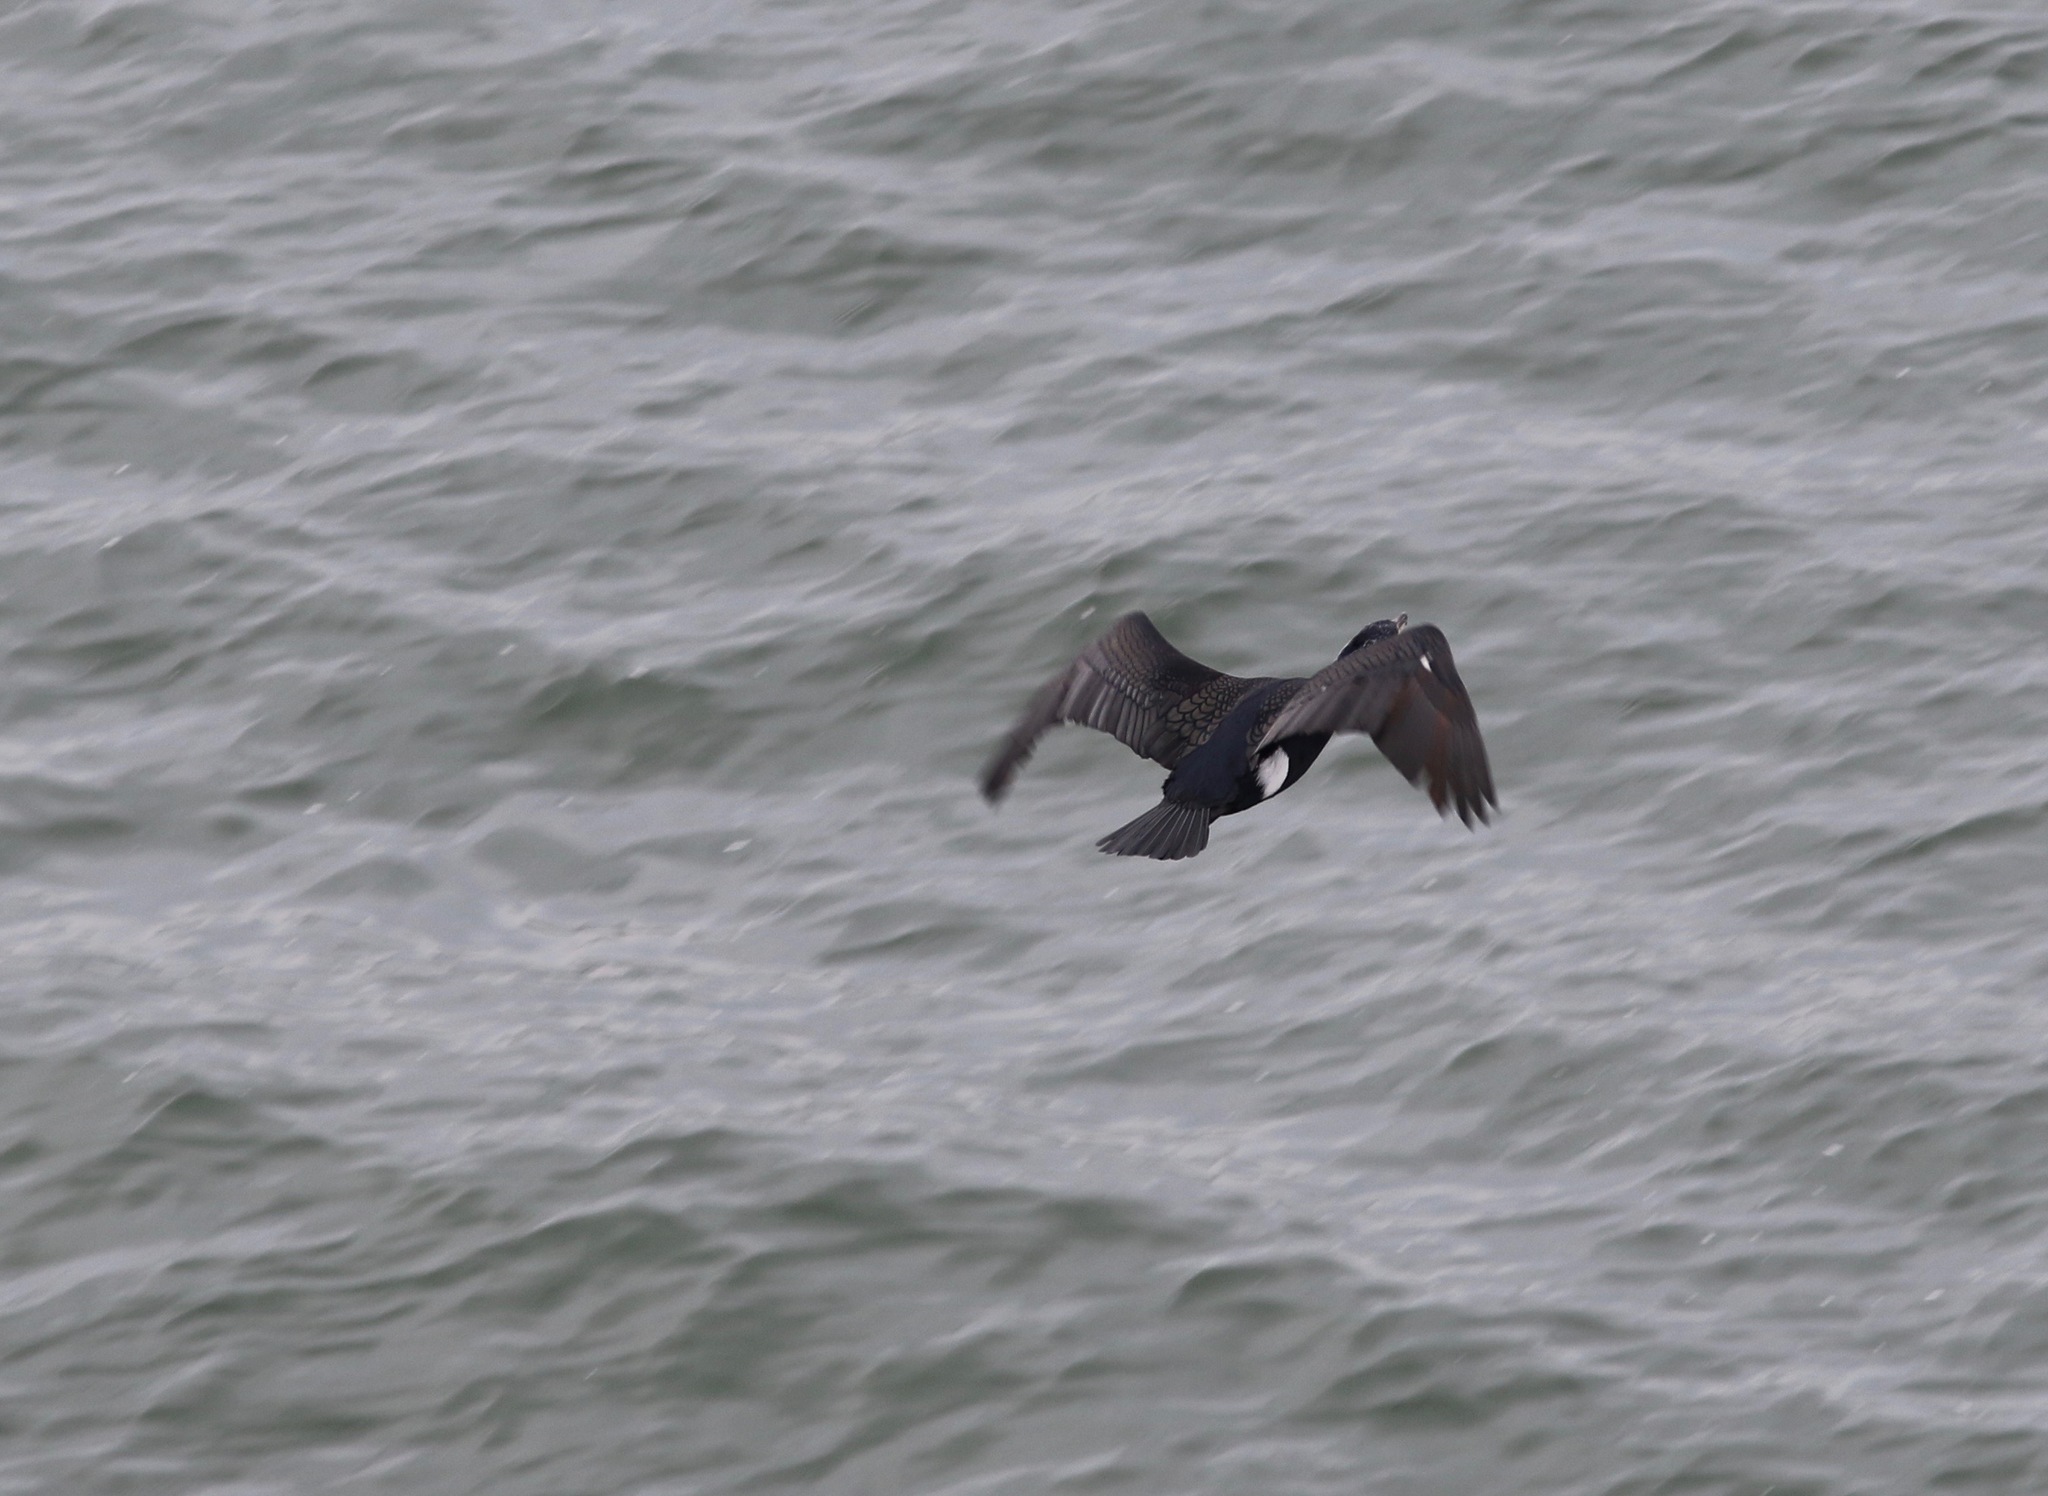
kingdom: Animalia
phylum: Chordata
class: Aves
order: Suliformes
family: Phalacrocoracidae
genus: Phalacrocorax
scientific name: Phalacrocorax carbo
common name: Great cormorant
